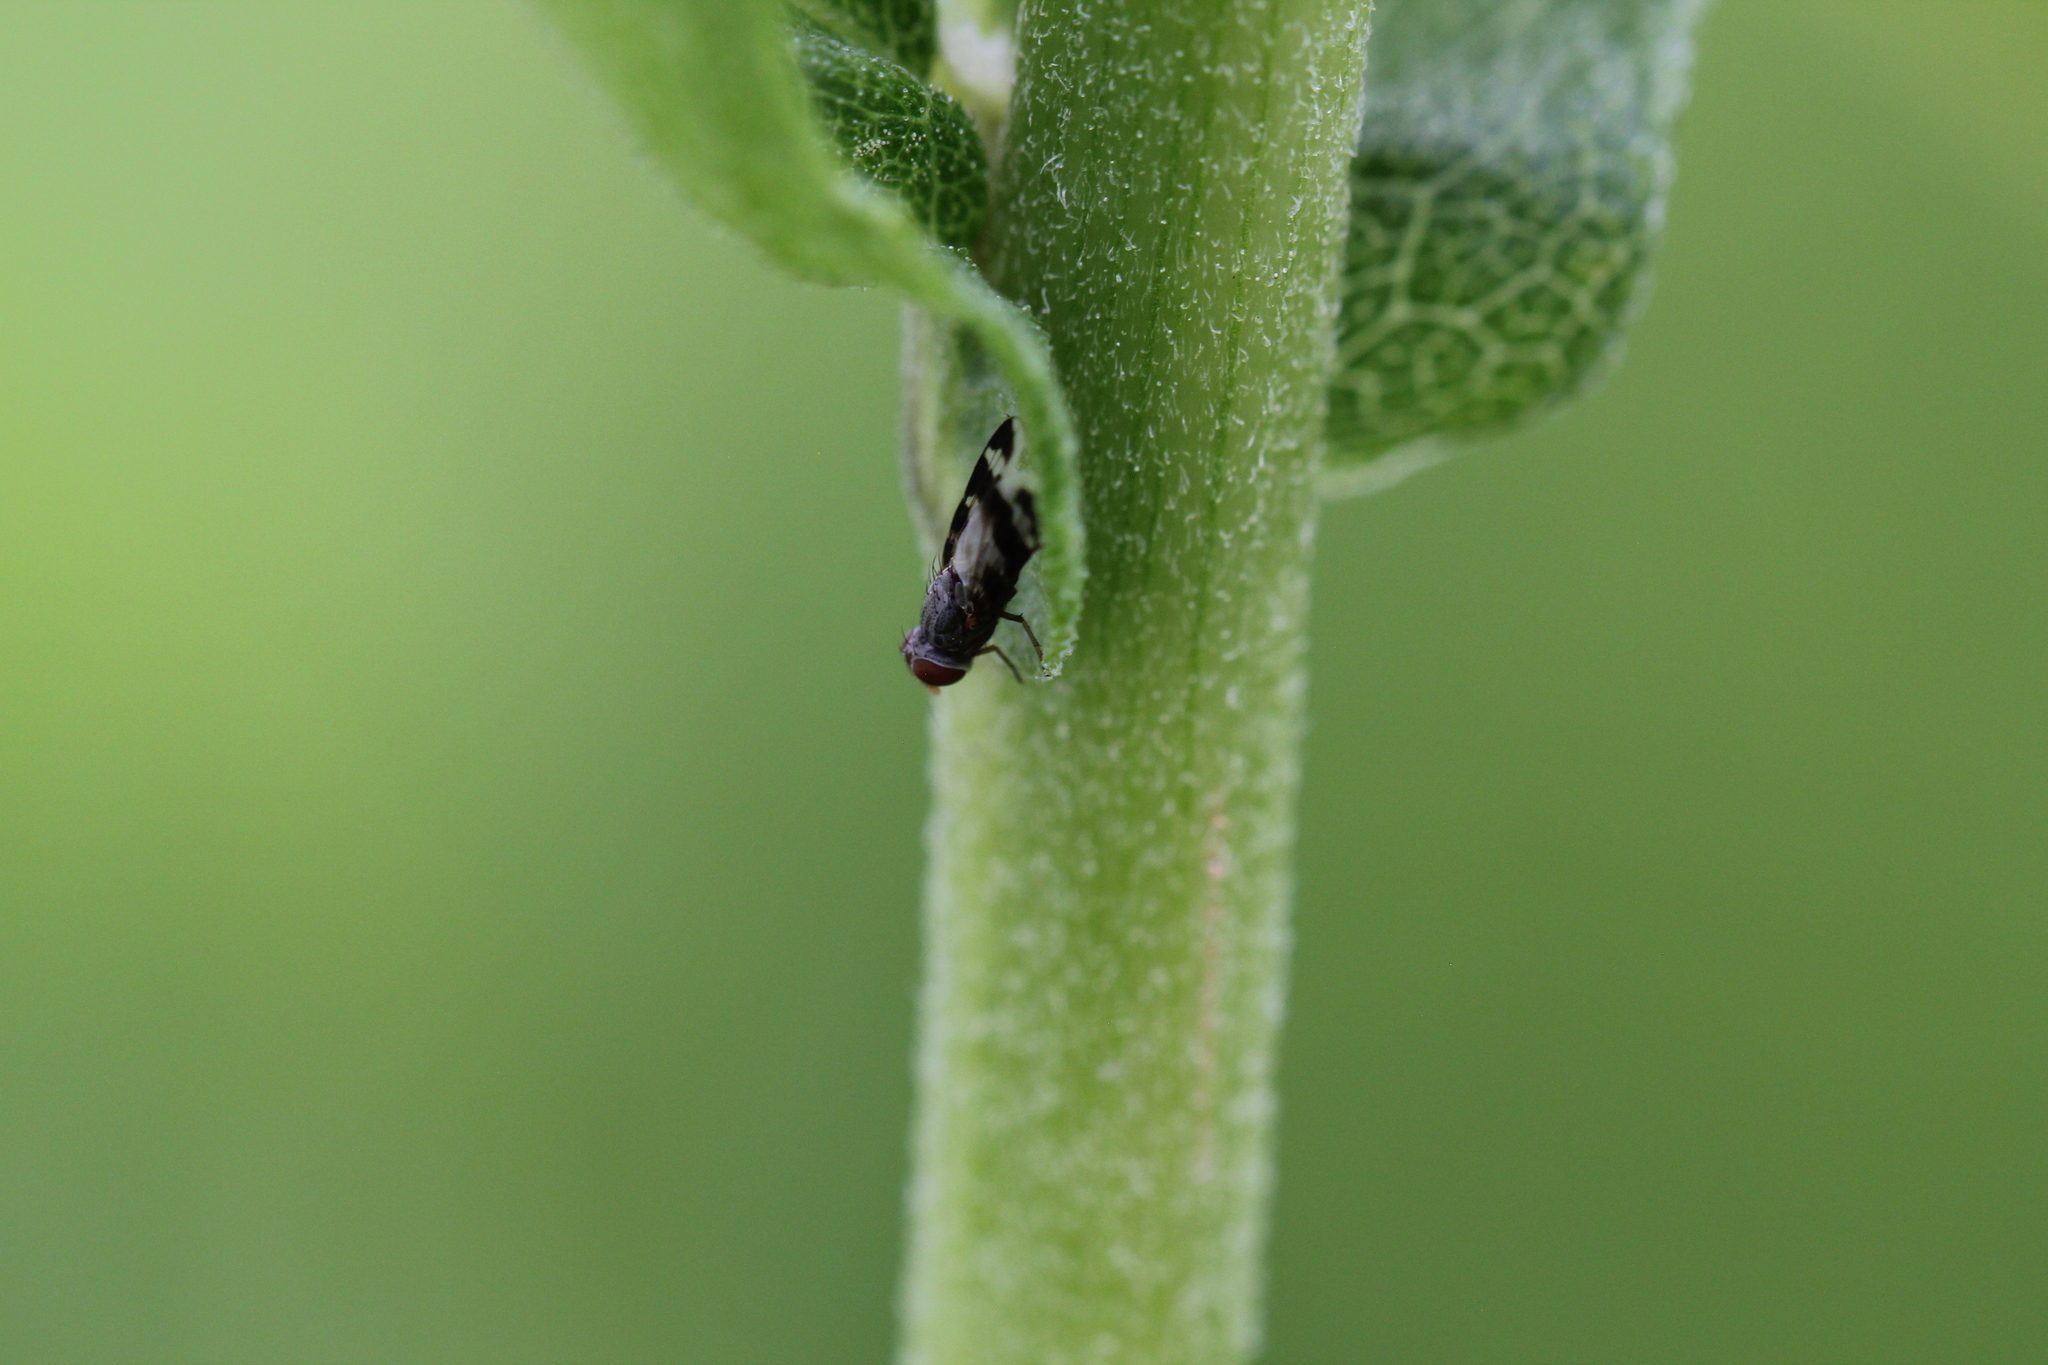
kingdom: Animalia
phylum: Arthropoda
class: Insecta
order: Diptera
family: Ulidiidae
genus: Herina
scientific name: Herina ruficeps
